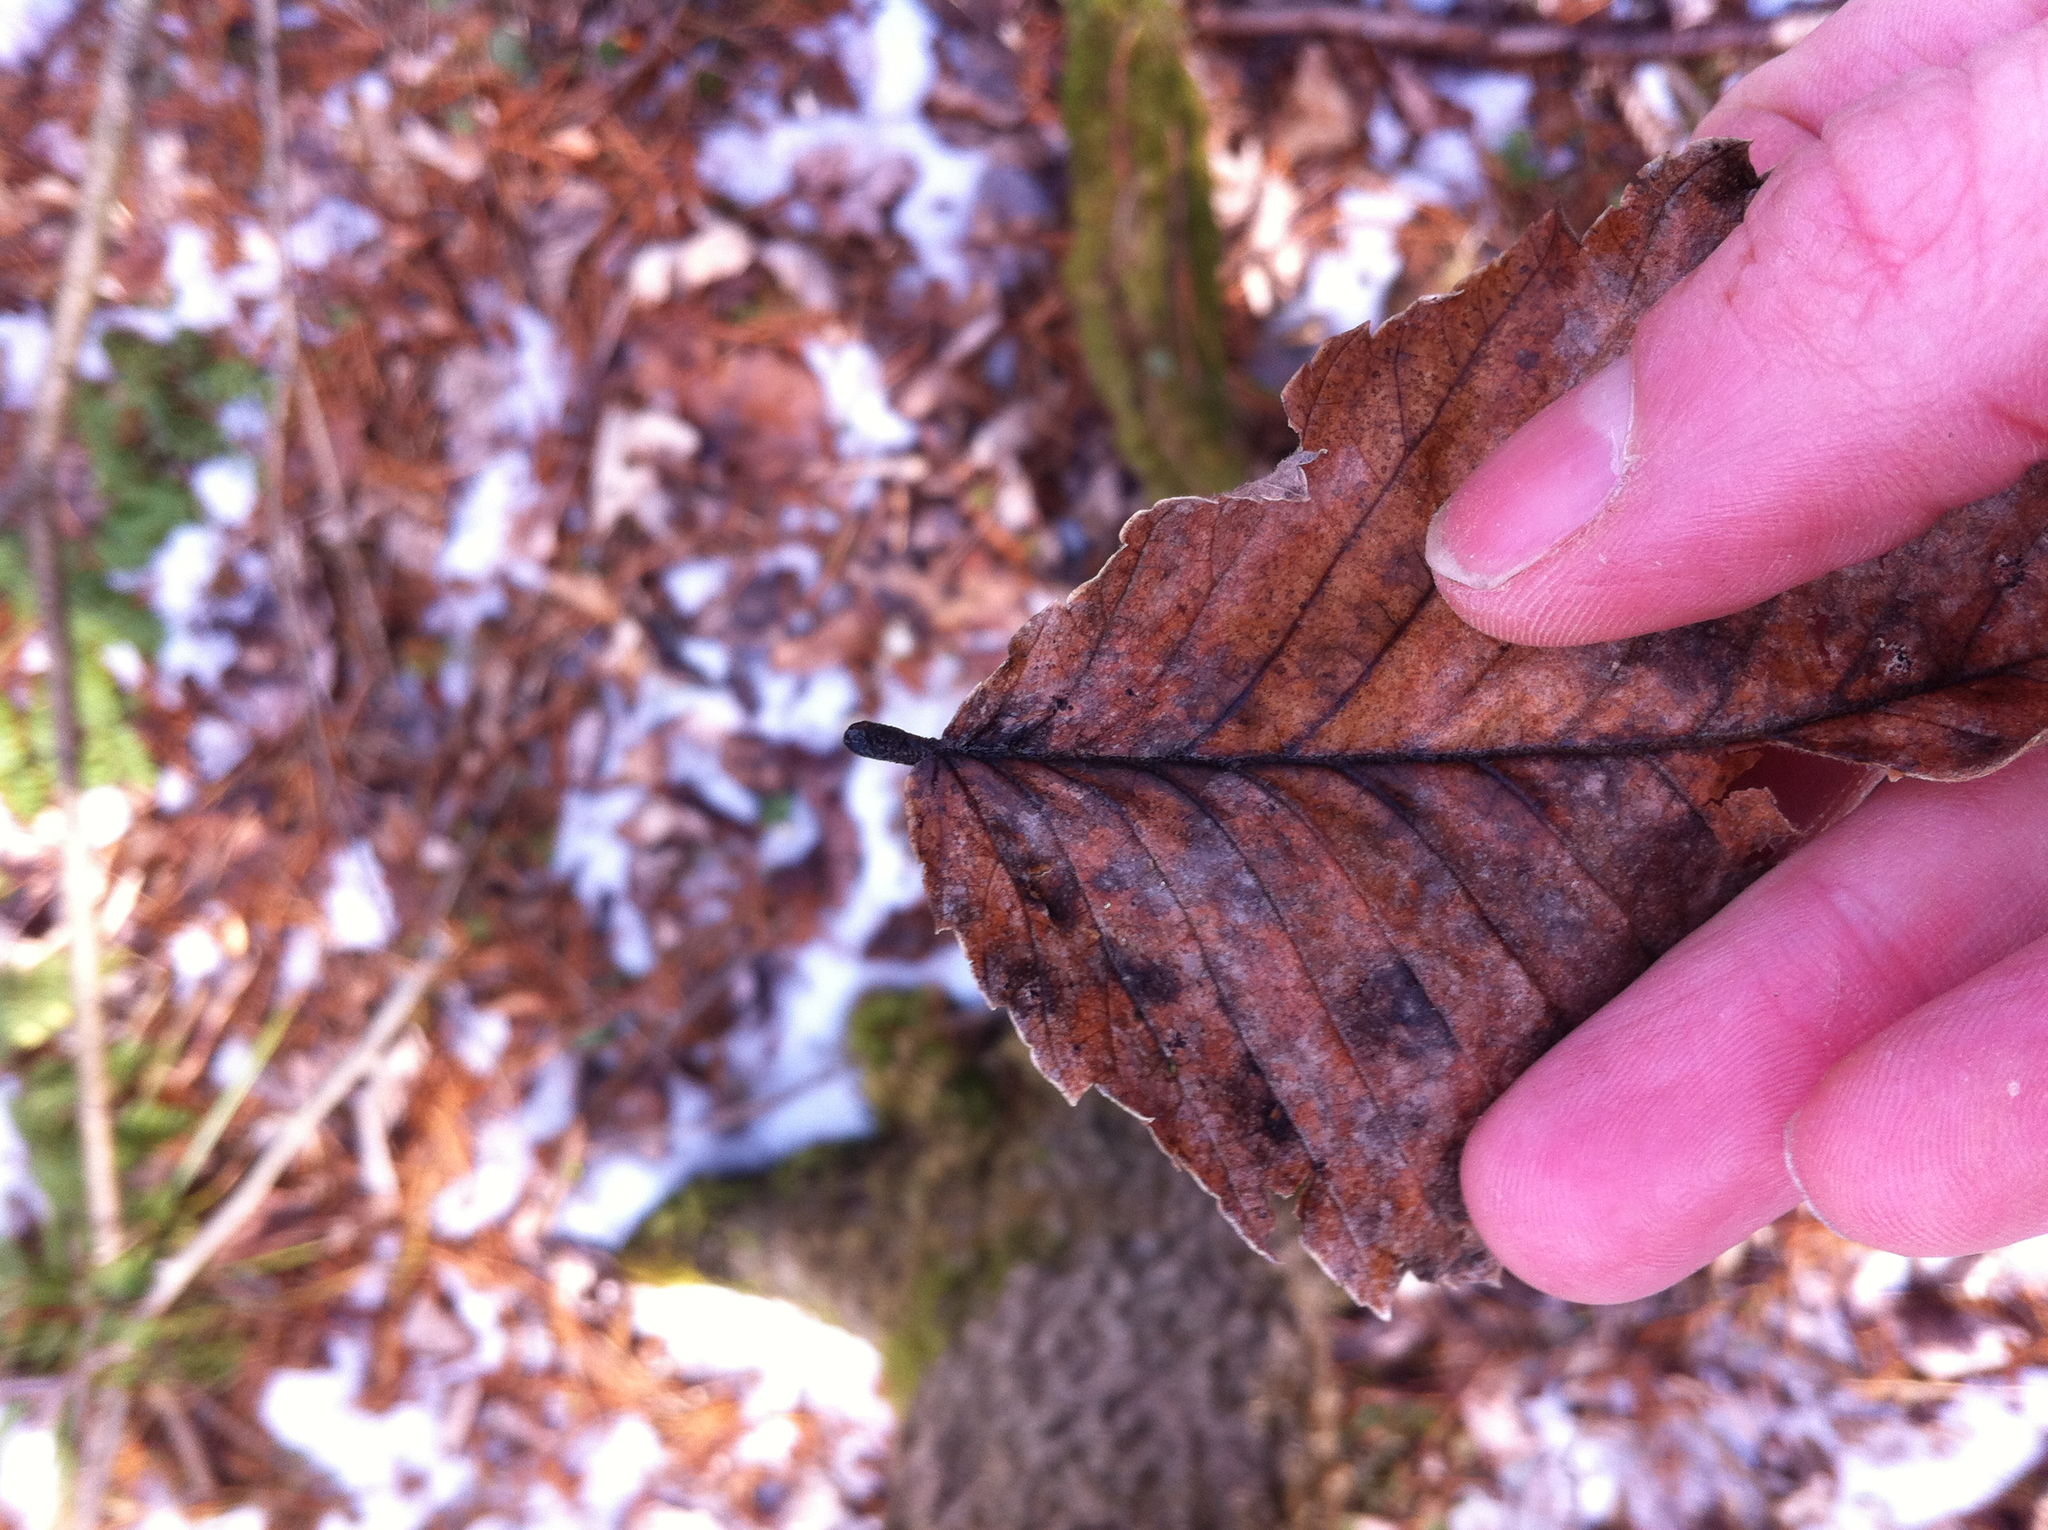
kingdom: Plantae
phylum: Tracheophyta
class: Magnoliopsida
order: Rosales
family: Ulmaceae
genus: Ulmus
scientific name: Ulmus americana
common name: American elm
